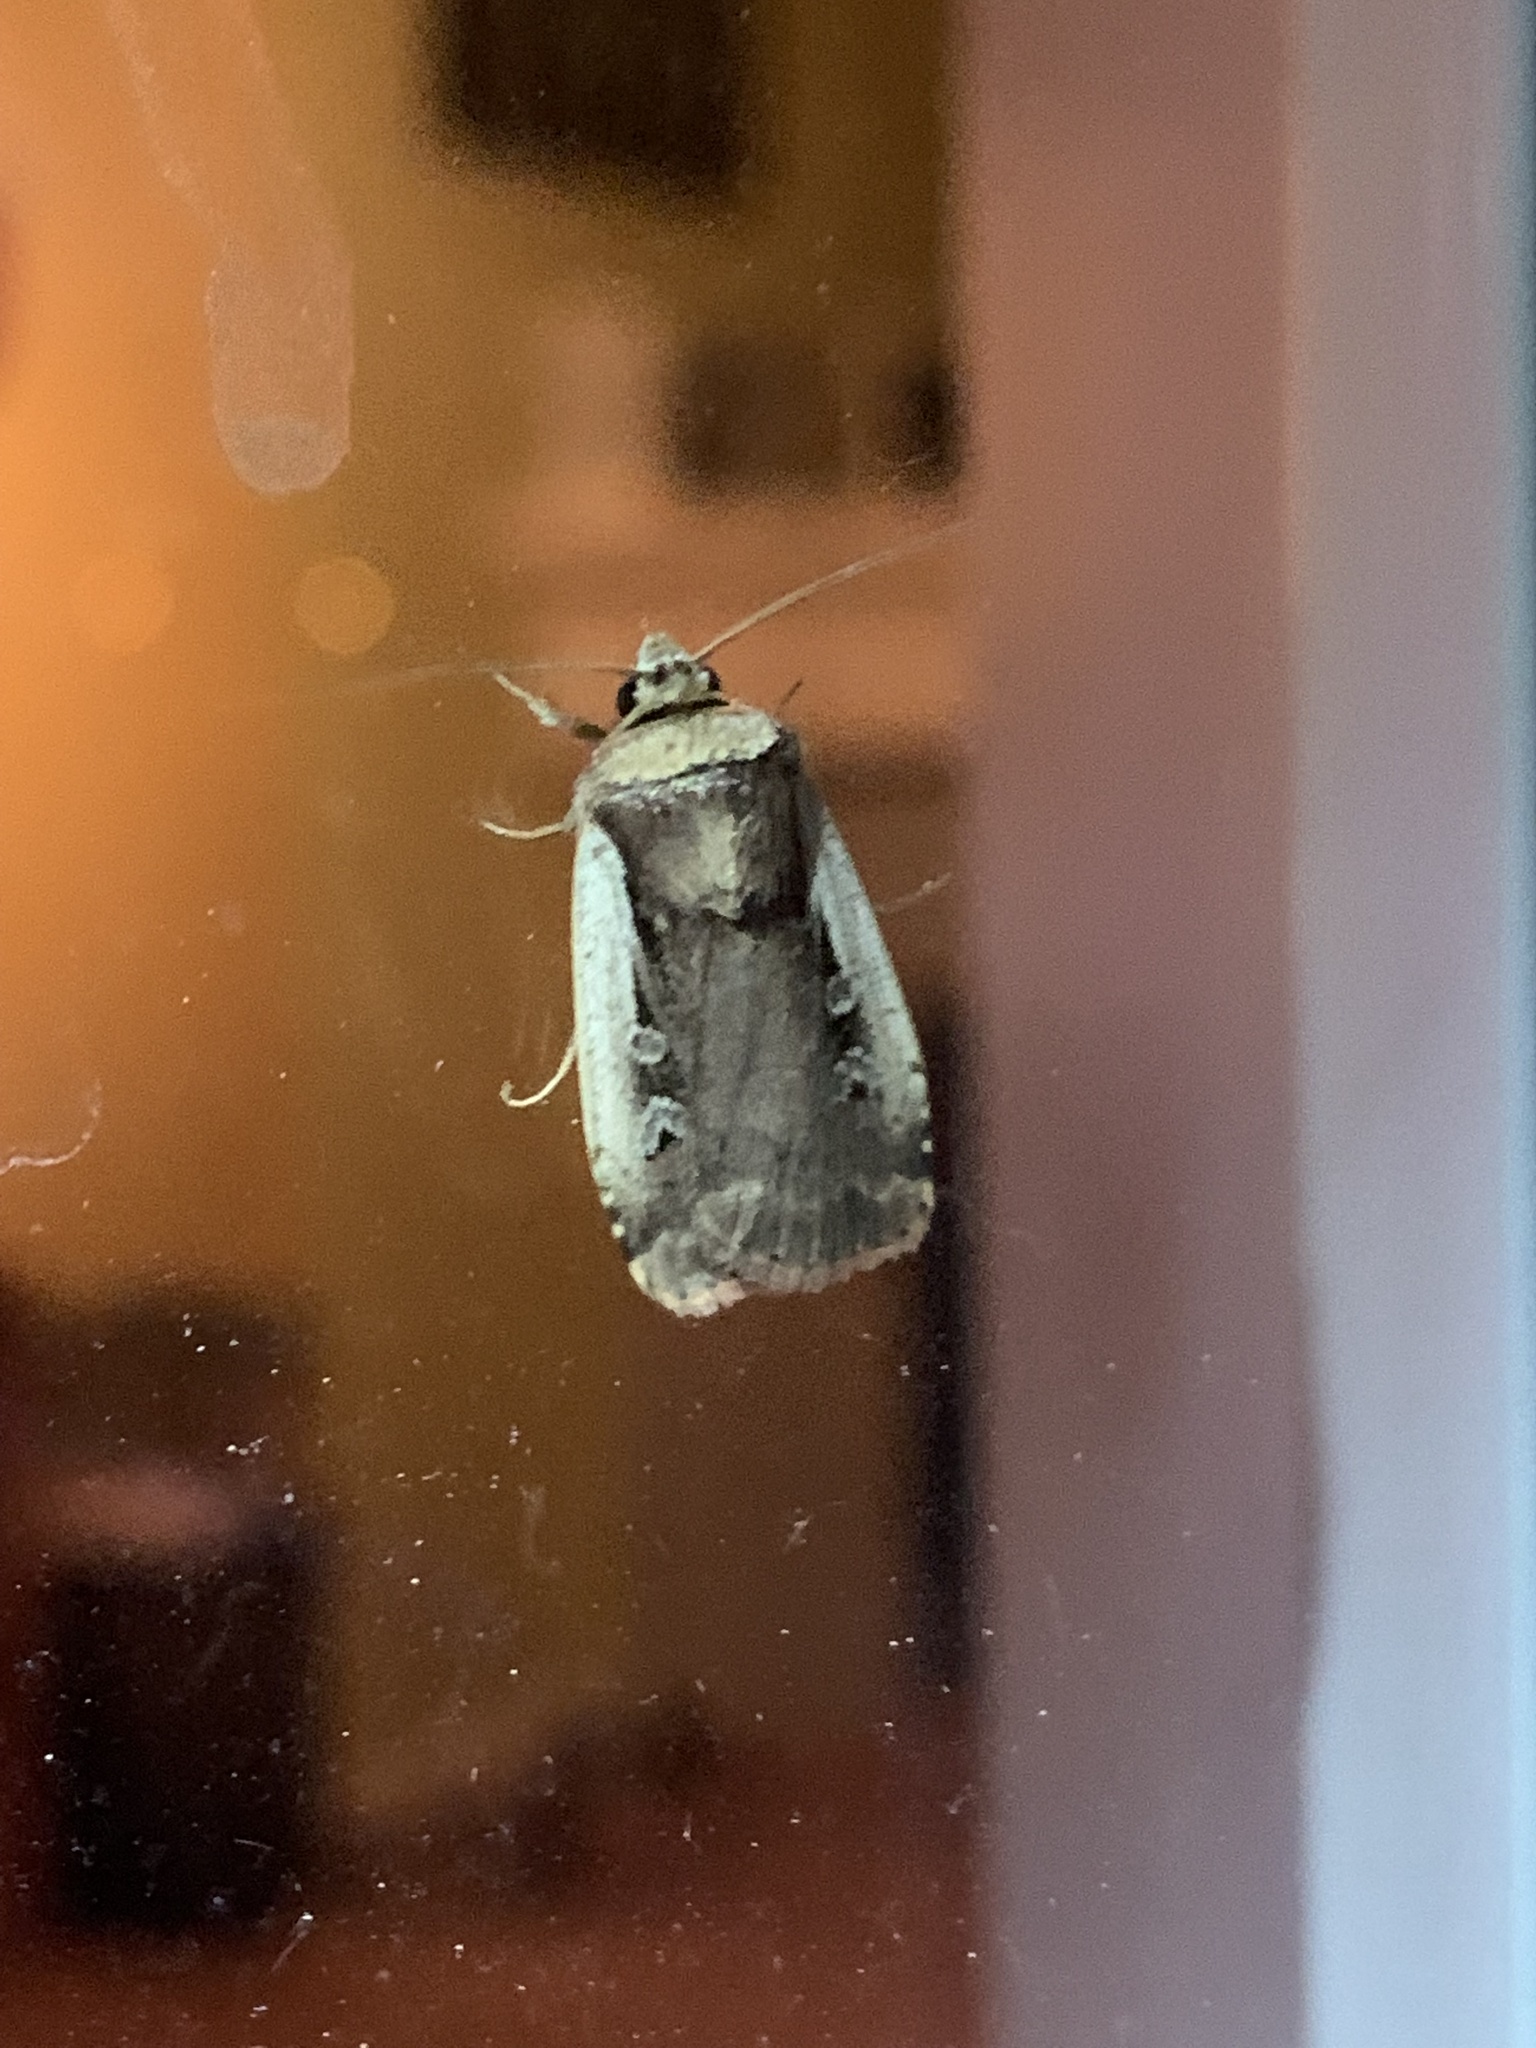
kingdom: Animalia
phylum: Arthropoda
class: Insecta
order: Lepidoptera
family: Noctuidae
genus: Ochropleura
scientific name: Ochropleura implecta
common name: Flame-shouldered dart
